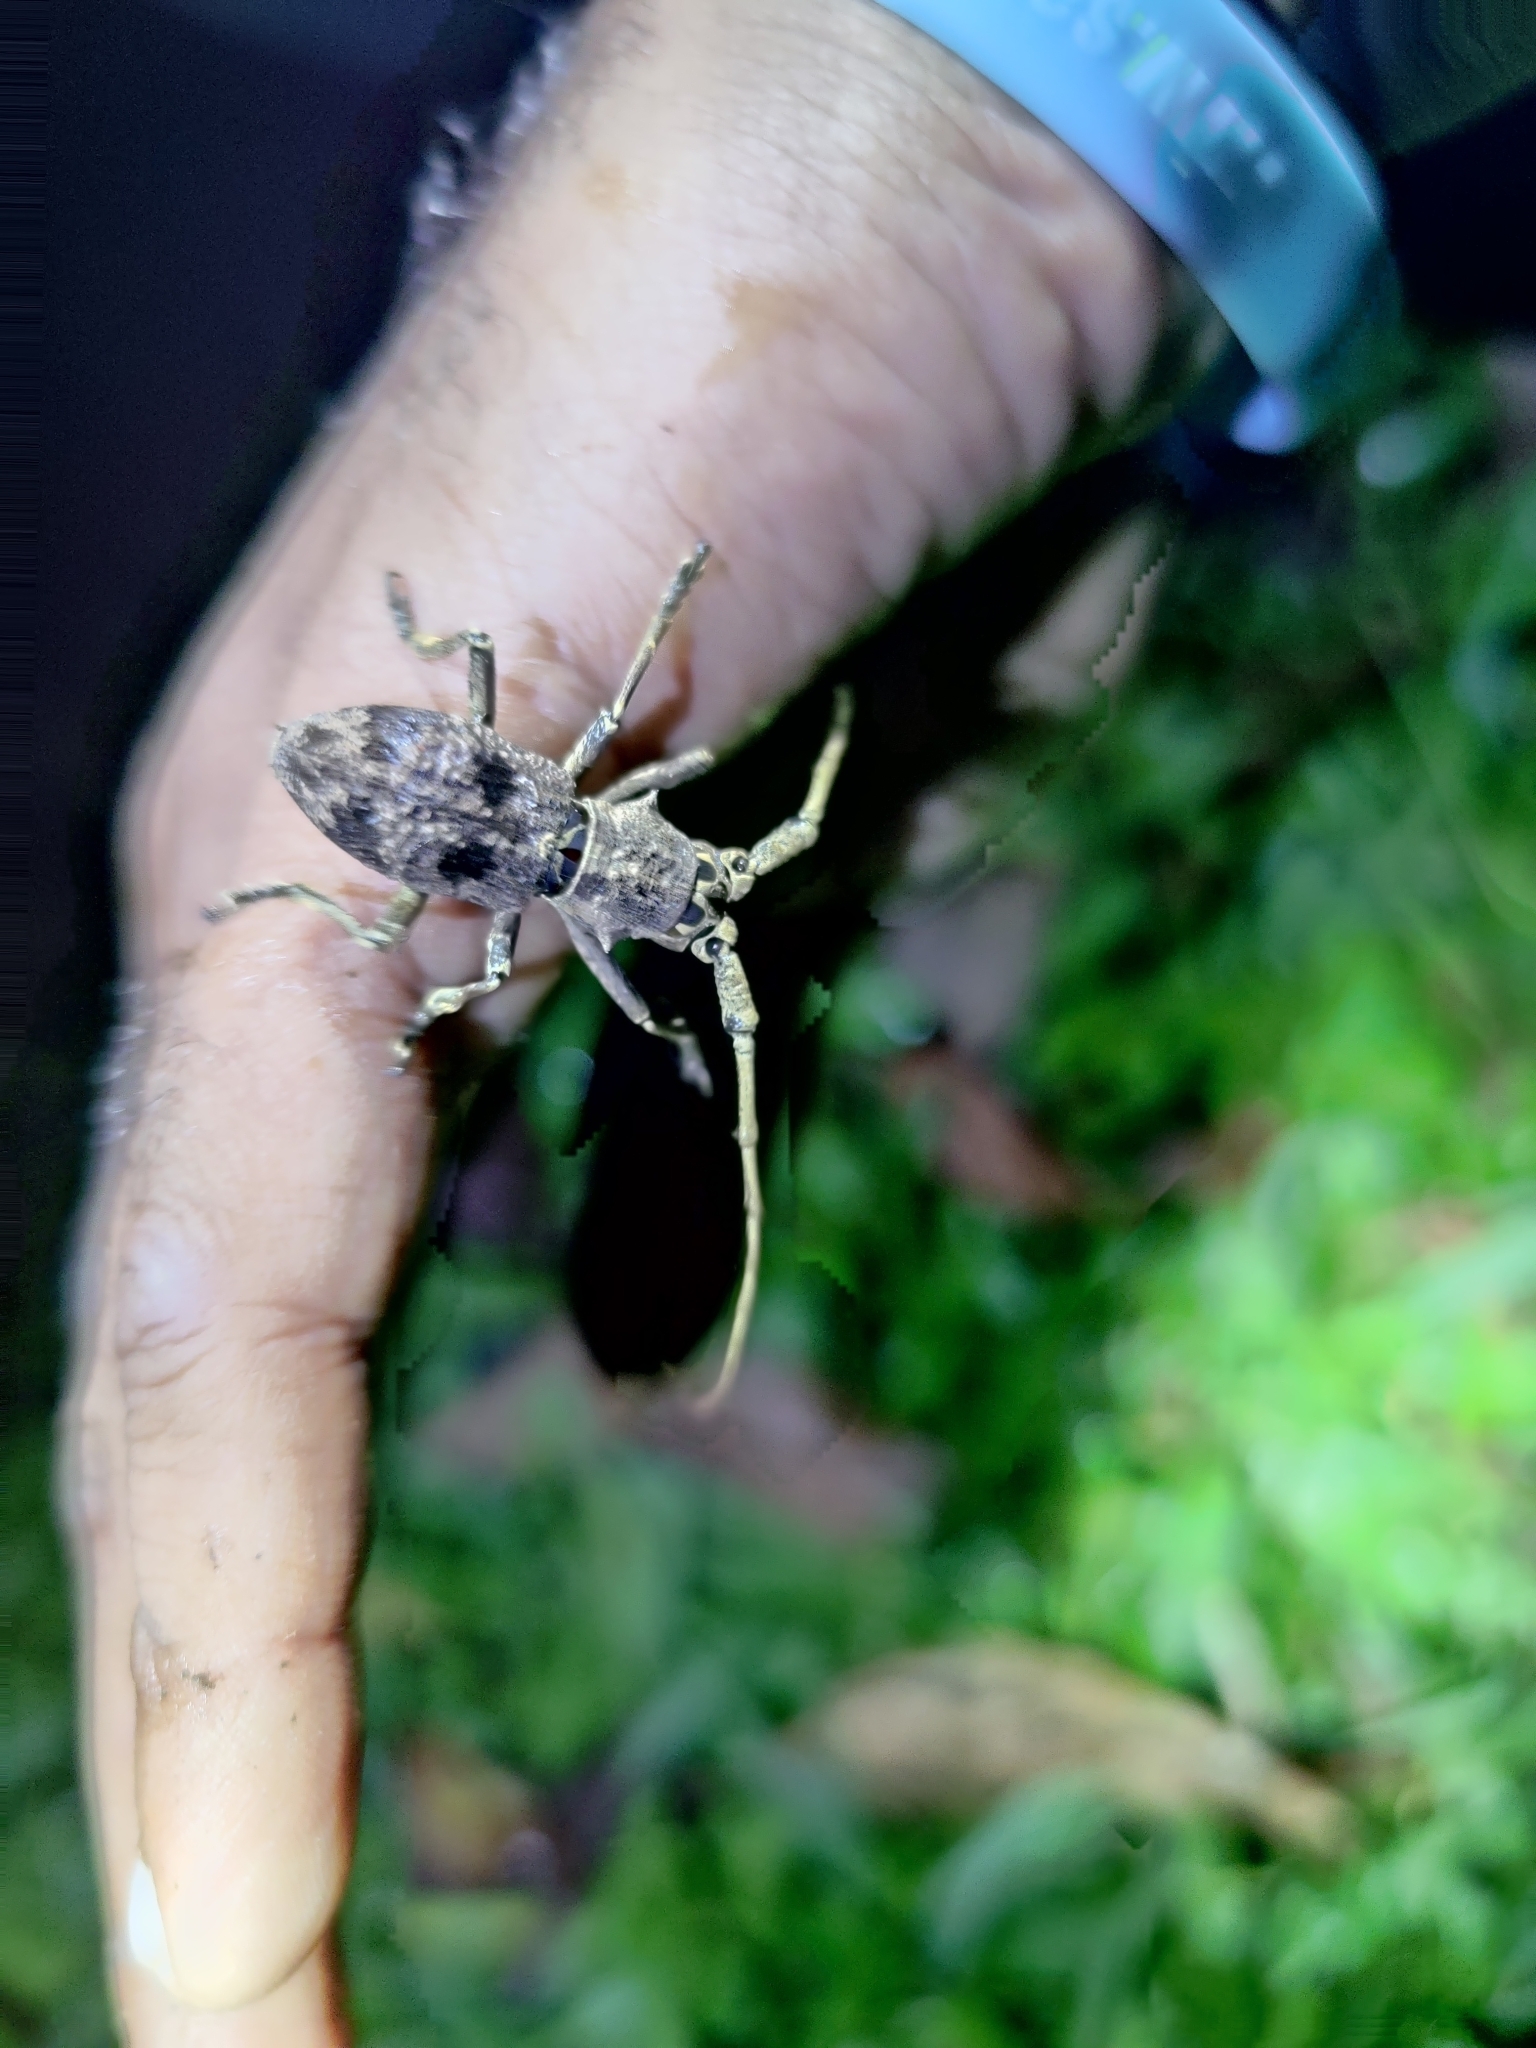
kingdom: Animalia
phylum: Arthropoda
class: Insecta
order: Coleoptera
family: Cerambycidae
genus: Morimus
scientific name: Morimus inaequalis
